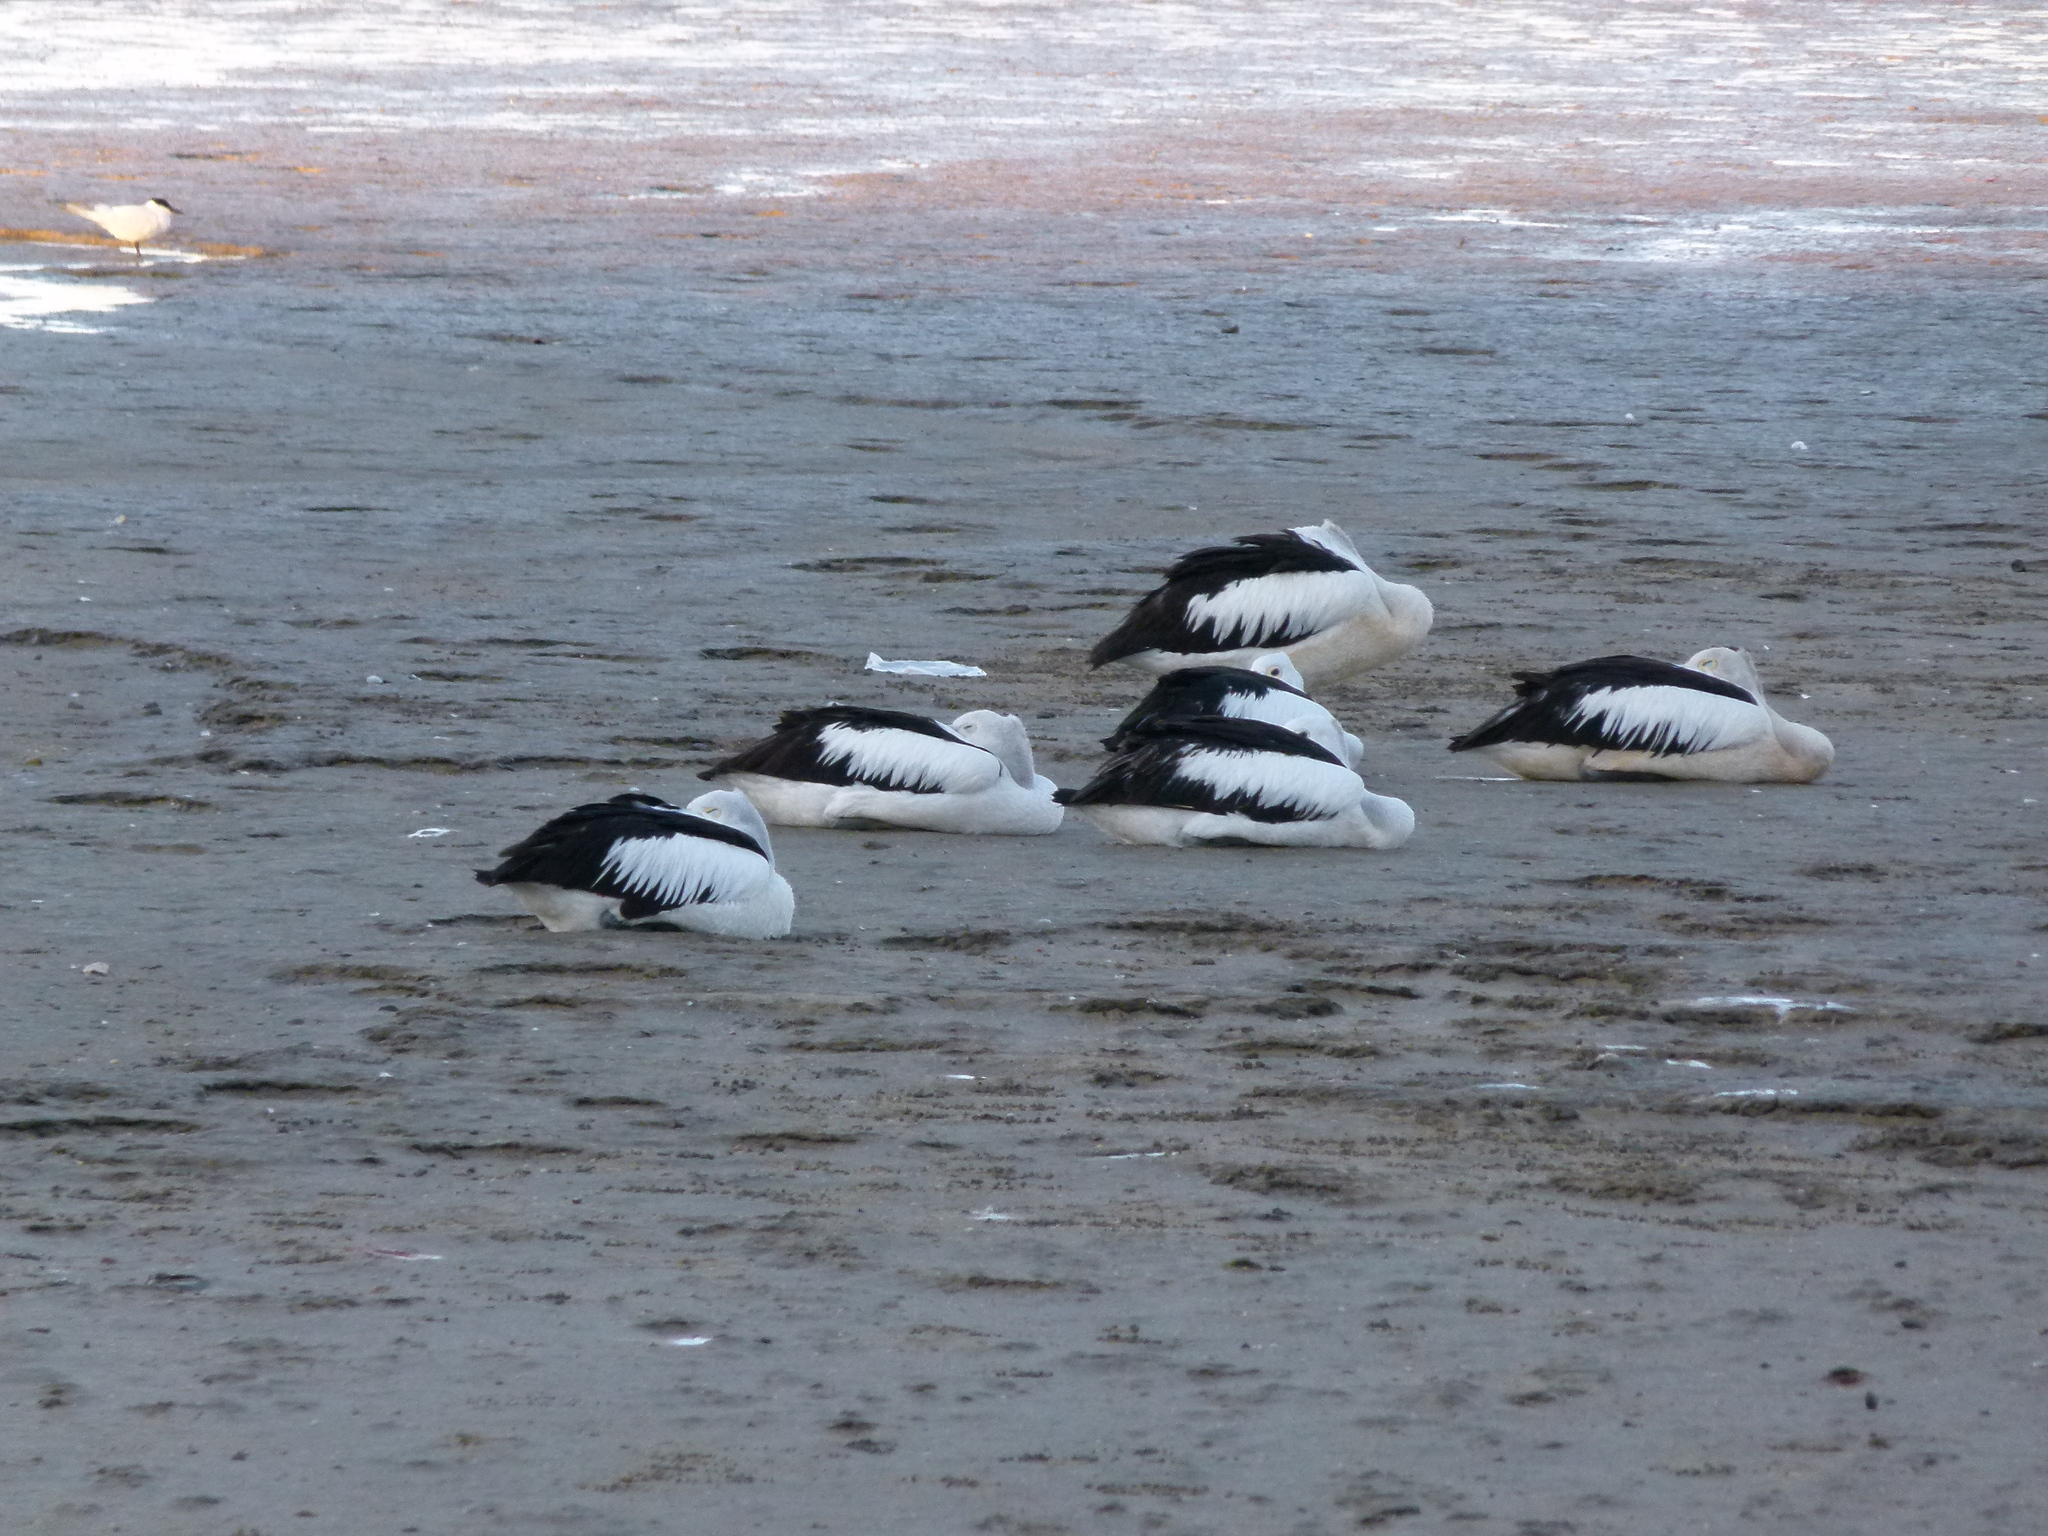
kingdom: Animalia
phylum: Chordata
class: Aves
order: Pelecaniformes
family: Pelecanidae
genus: Pelecanus
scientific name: Pelecanus conspicillatus
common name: Australian pelican
